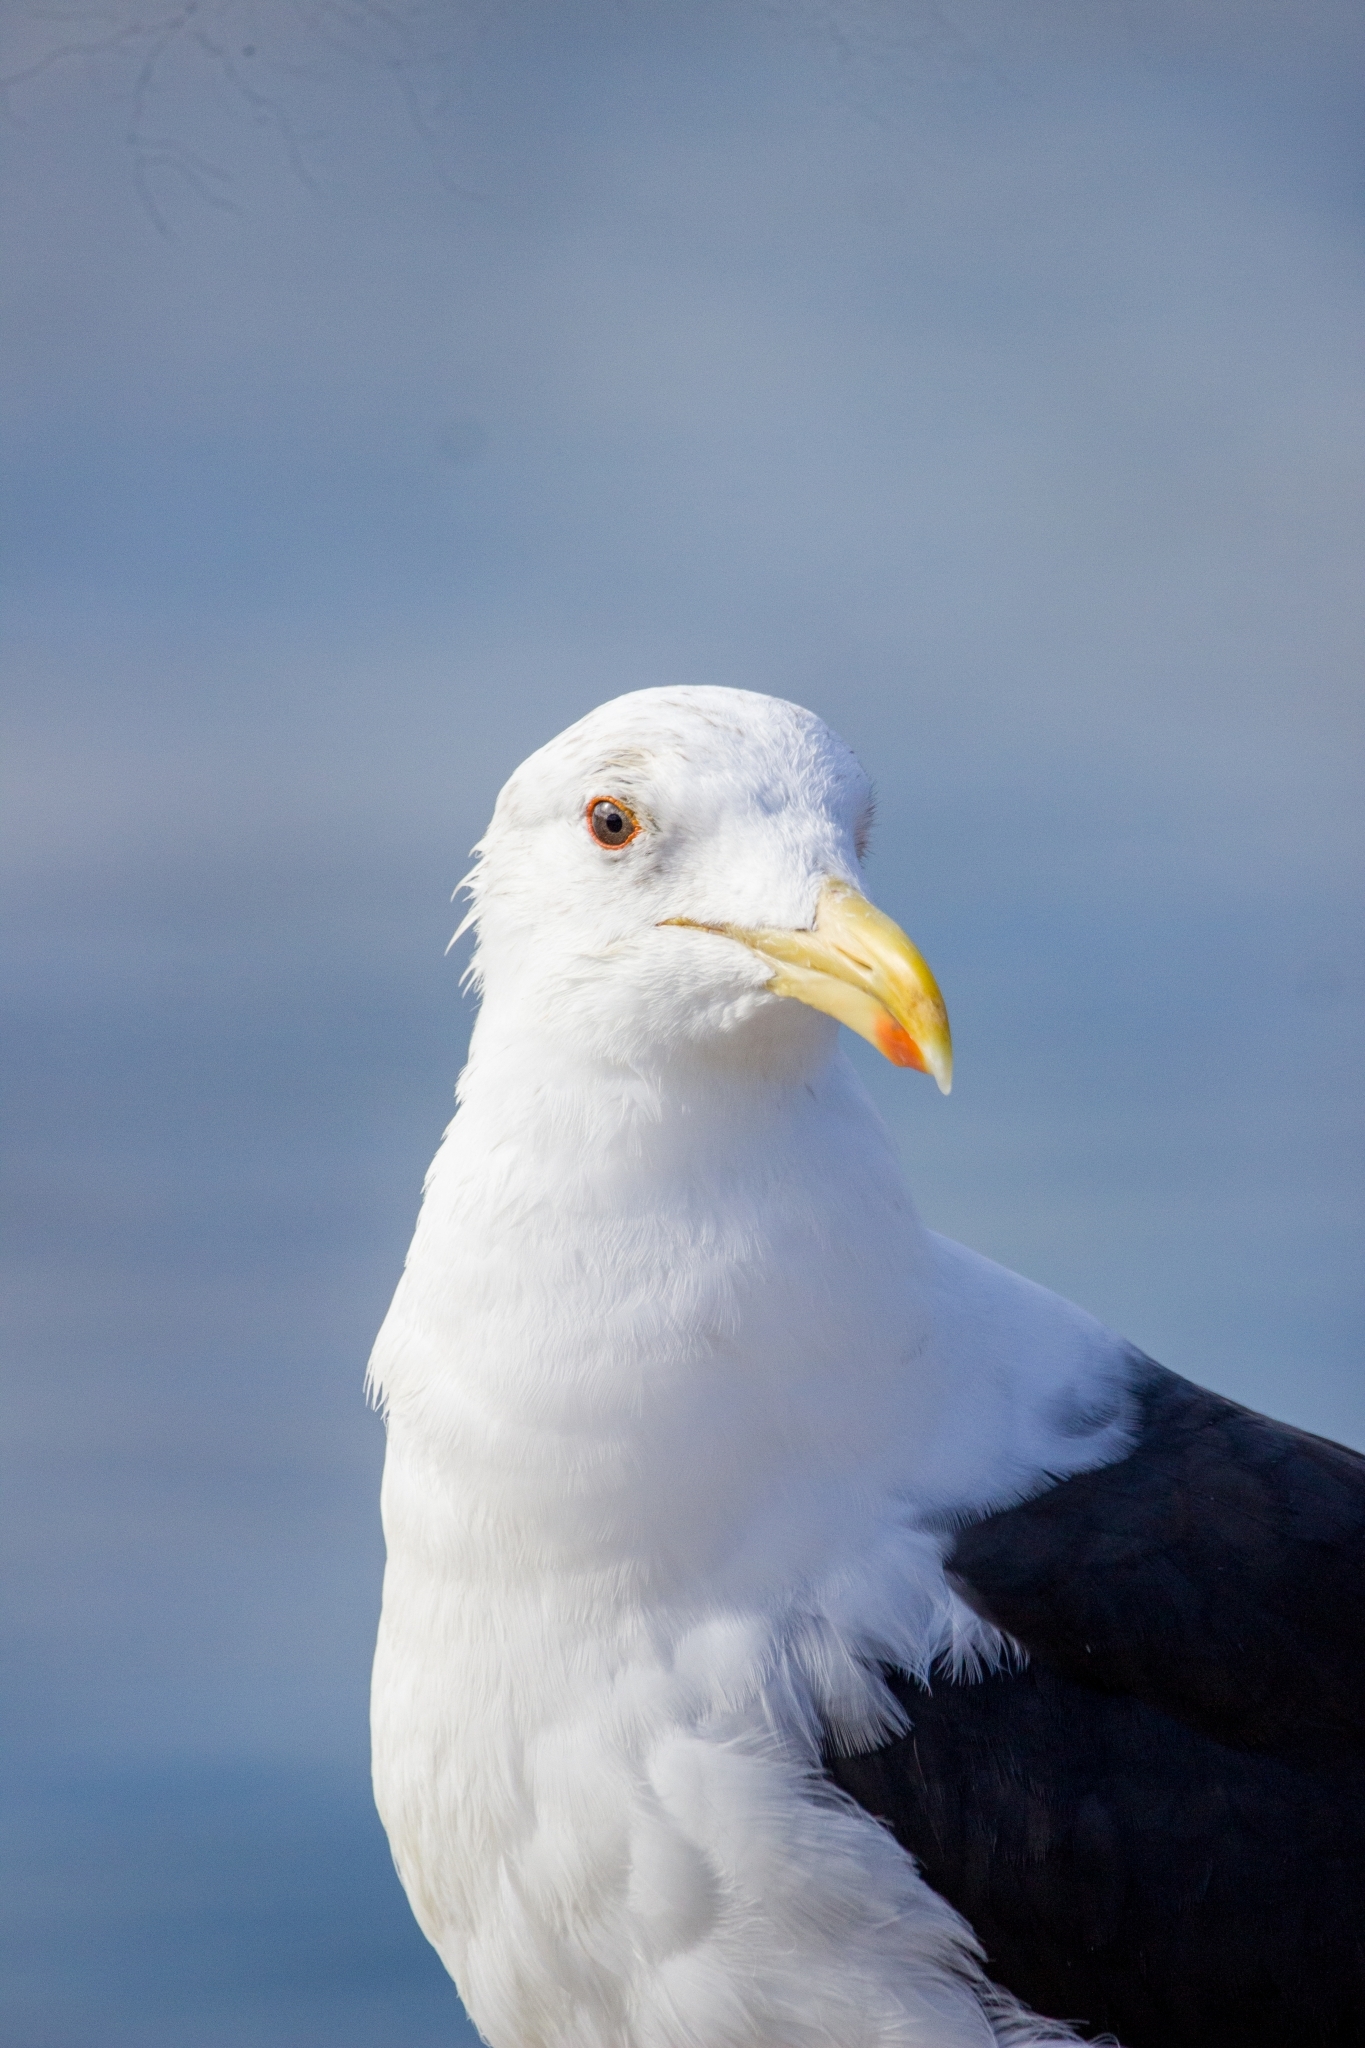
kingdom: Animalia
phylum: Chordata
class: Aves
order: Charadriiformes
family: Laridae
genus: Larus
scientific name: Larus dominicanus
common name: Kelp gull
